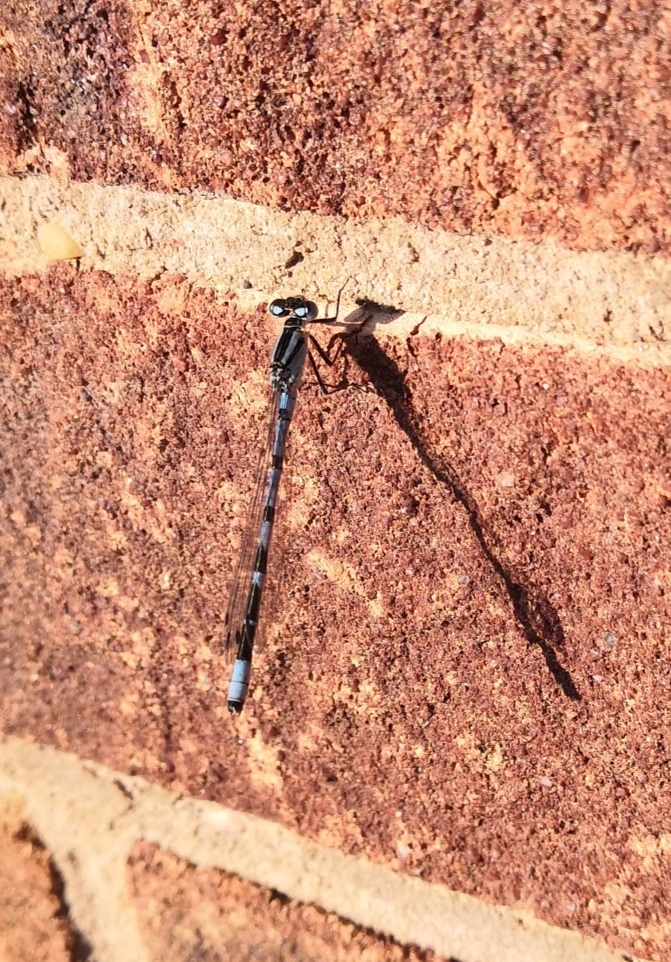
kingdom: Animalia
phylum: Arthropoda
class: Insecta
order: Odonata
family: Coenagrionidae
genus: Enallagma
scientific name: Enallagma cyathigerum
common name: Common blue damselfly
